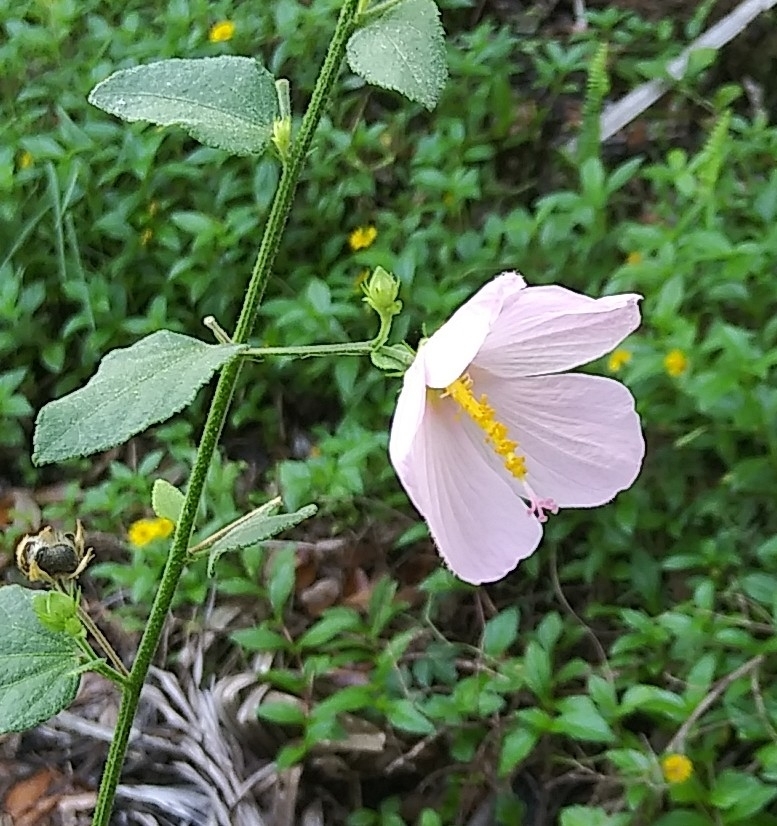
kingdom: Plantae
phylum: Tracheophyta
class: Magnoliopsida
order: Malvales
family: Malvaceae
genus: Kosteletzkya
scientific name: Kosteletzkya pentacarpos
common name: Virginia saltmarsh mallow
